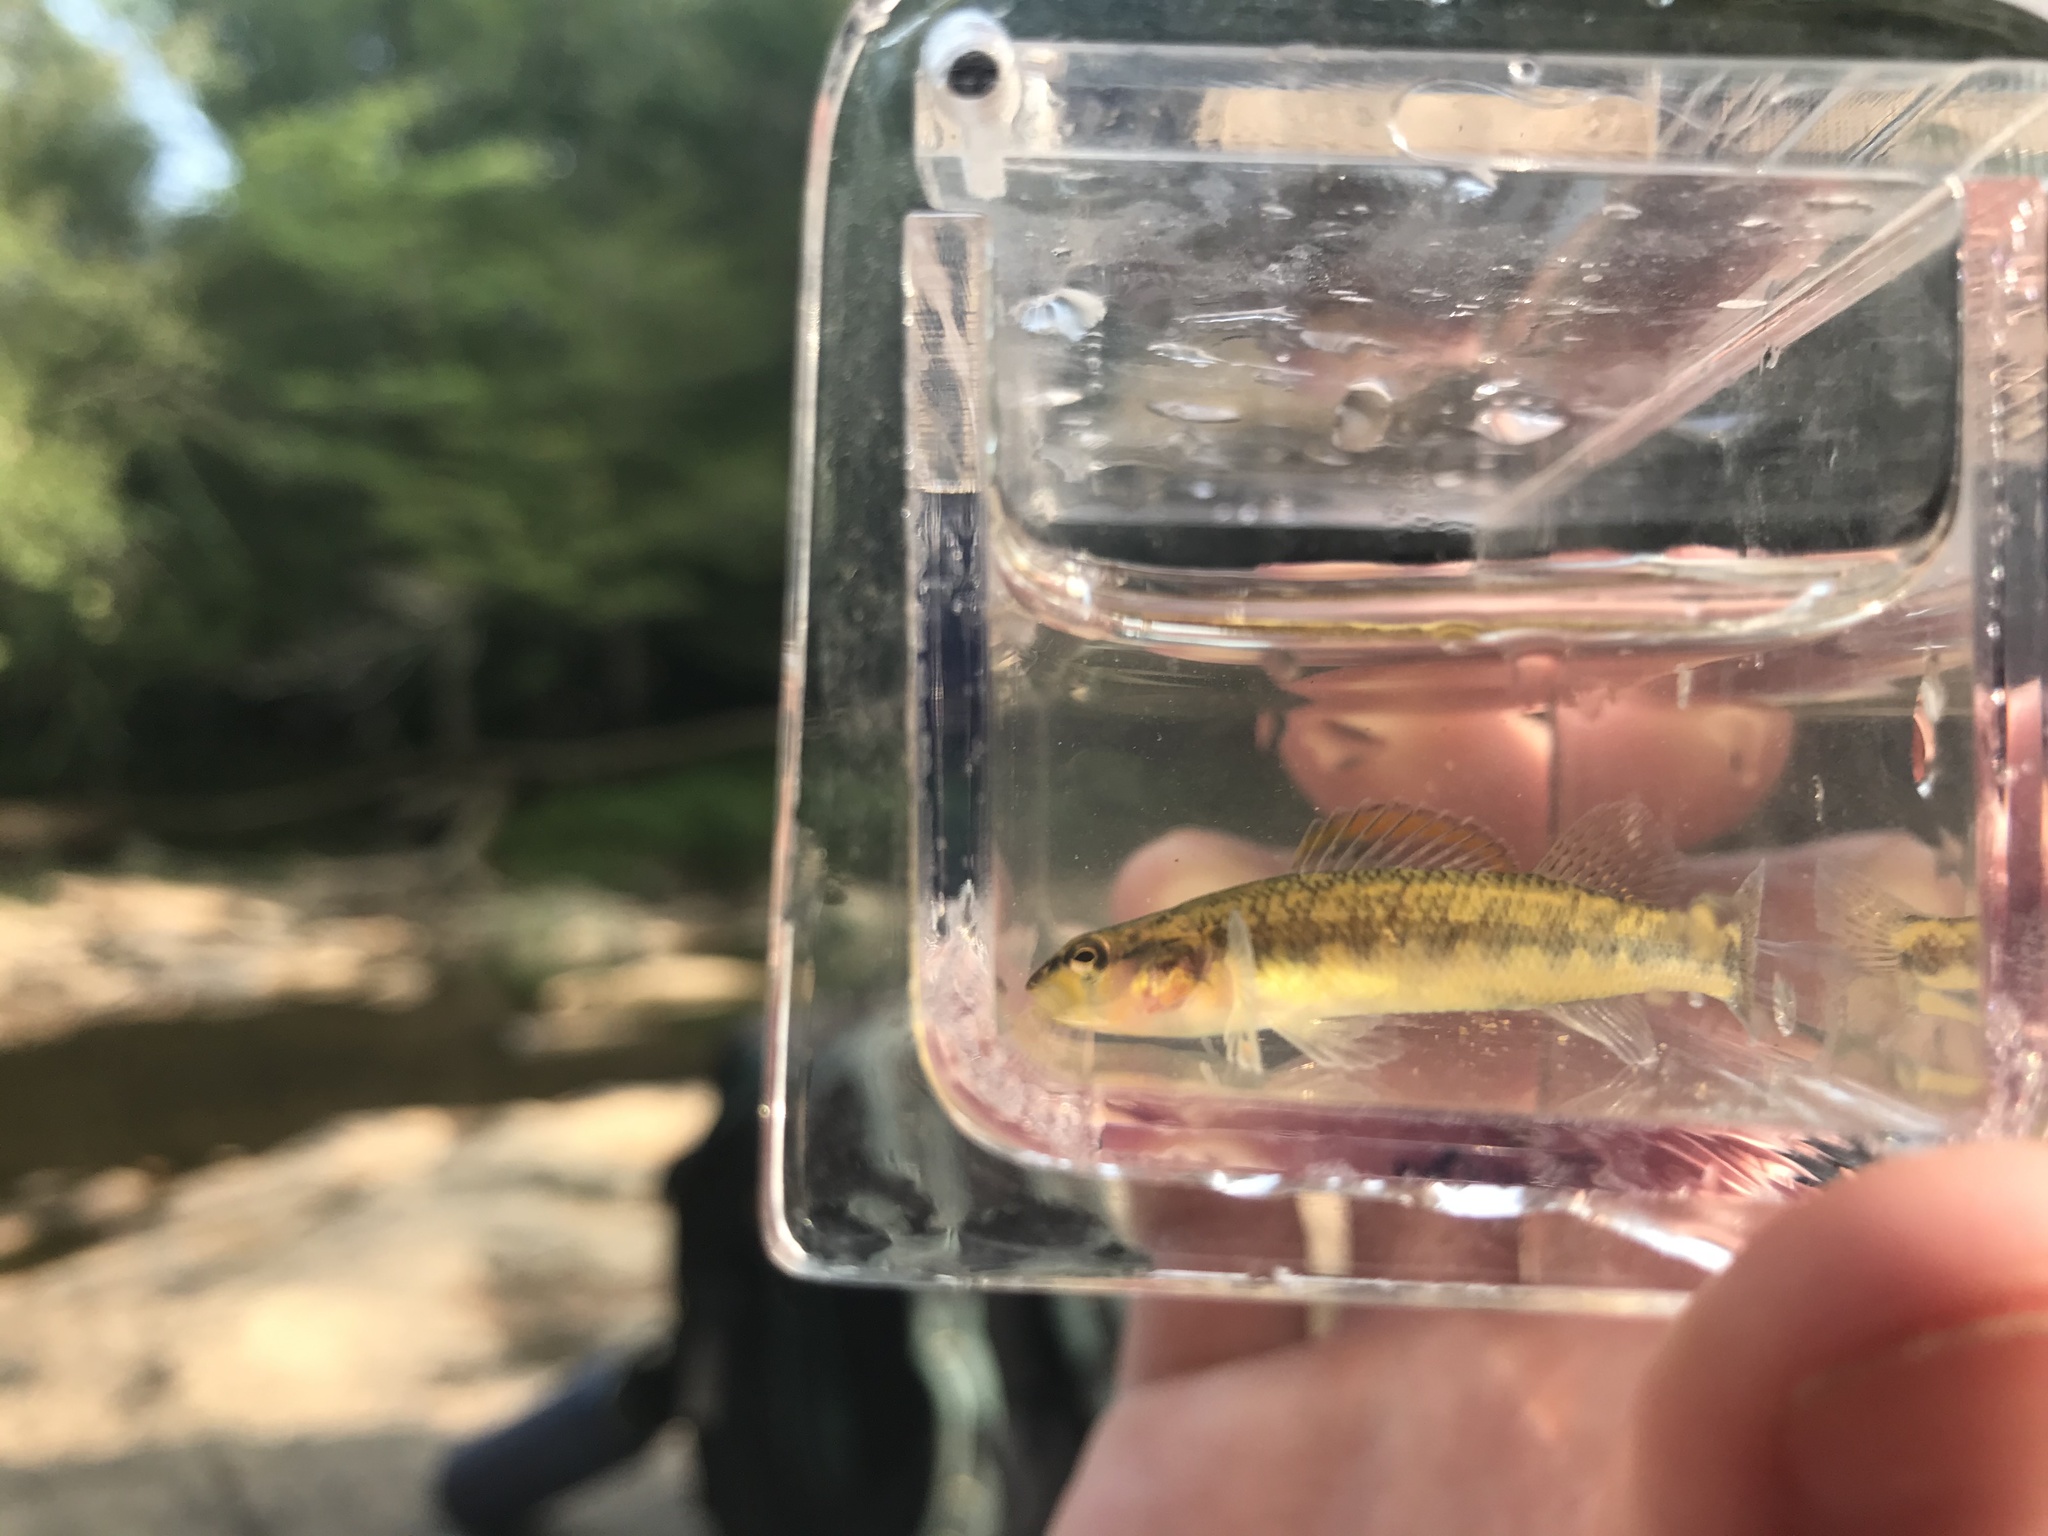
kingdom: Animalia
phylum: Chordata
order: Perciformes
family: Percidae
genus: Percina
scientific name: Percina roanoka
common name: Roanoke darter
